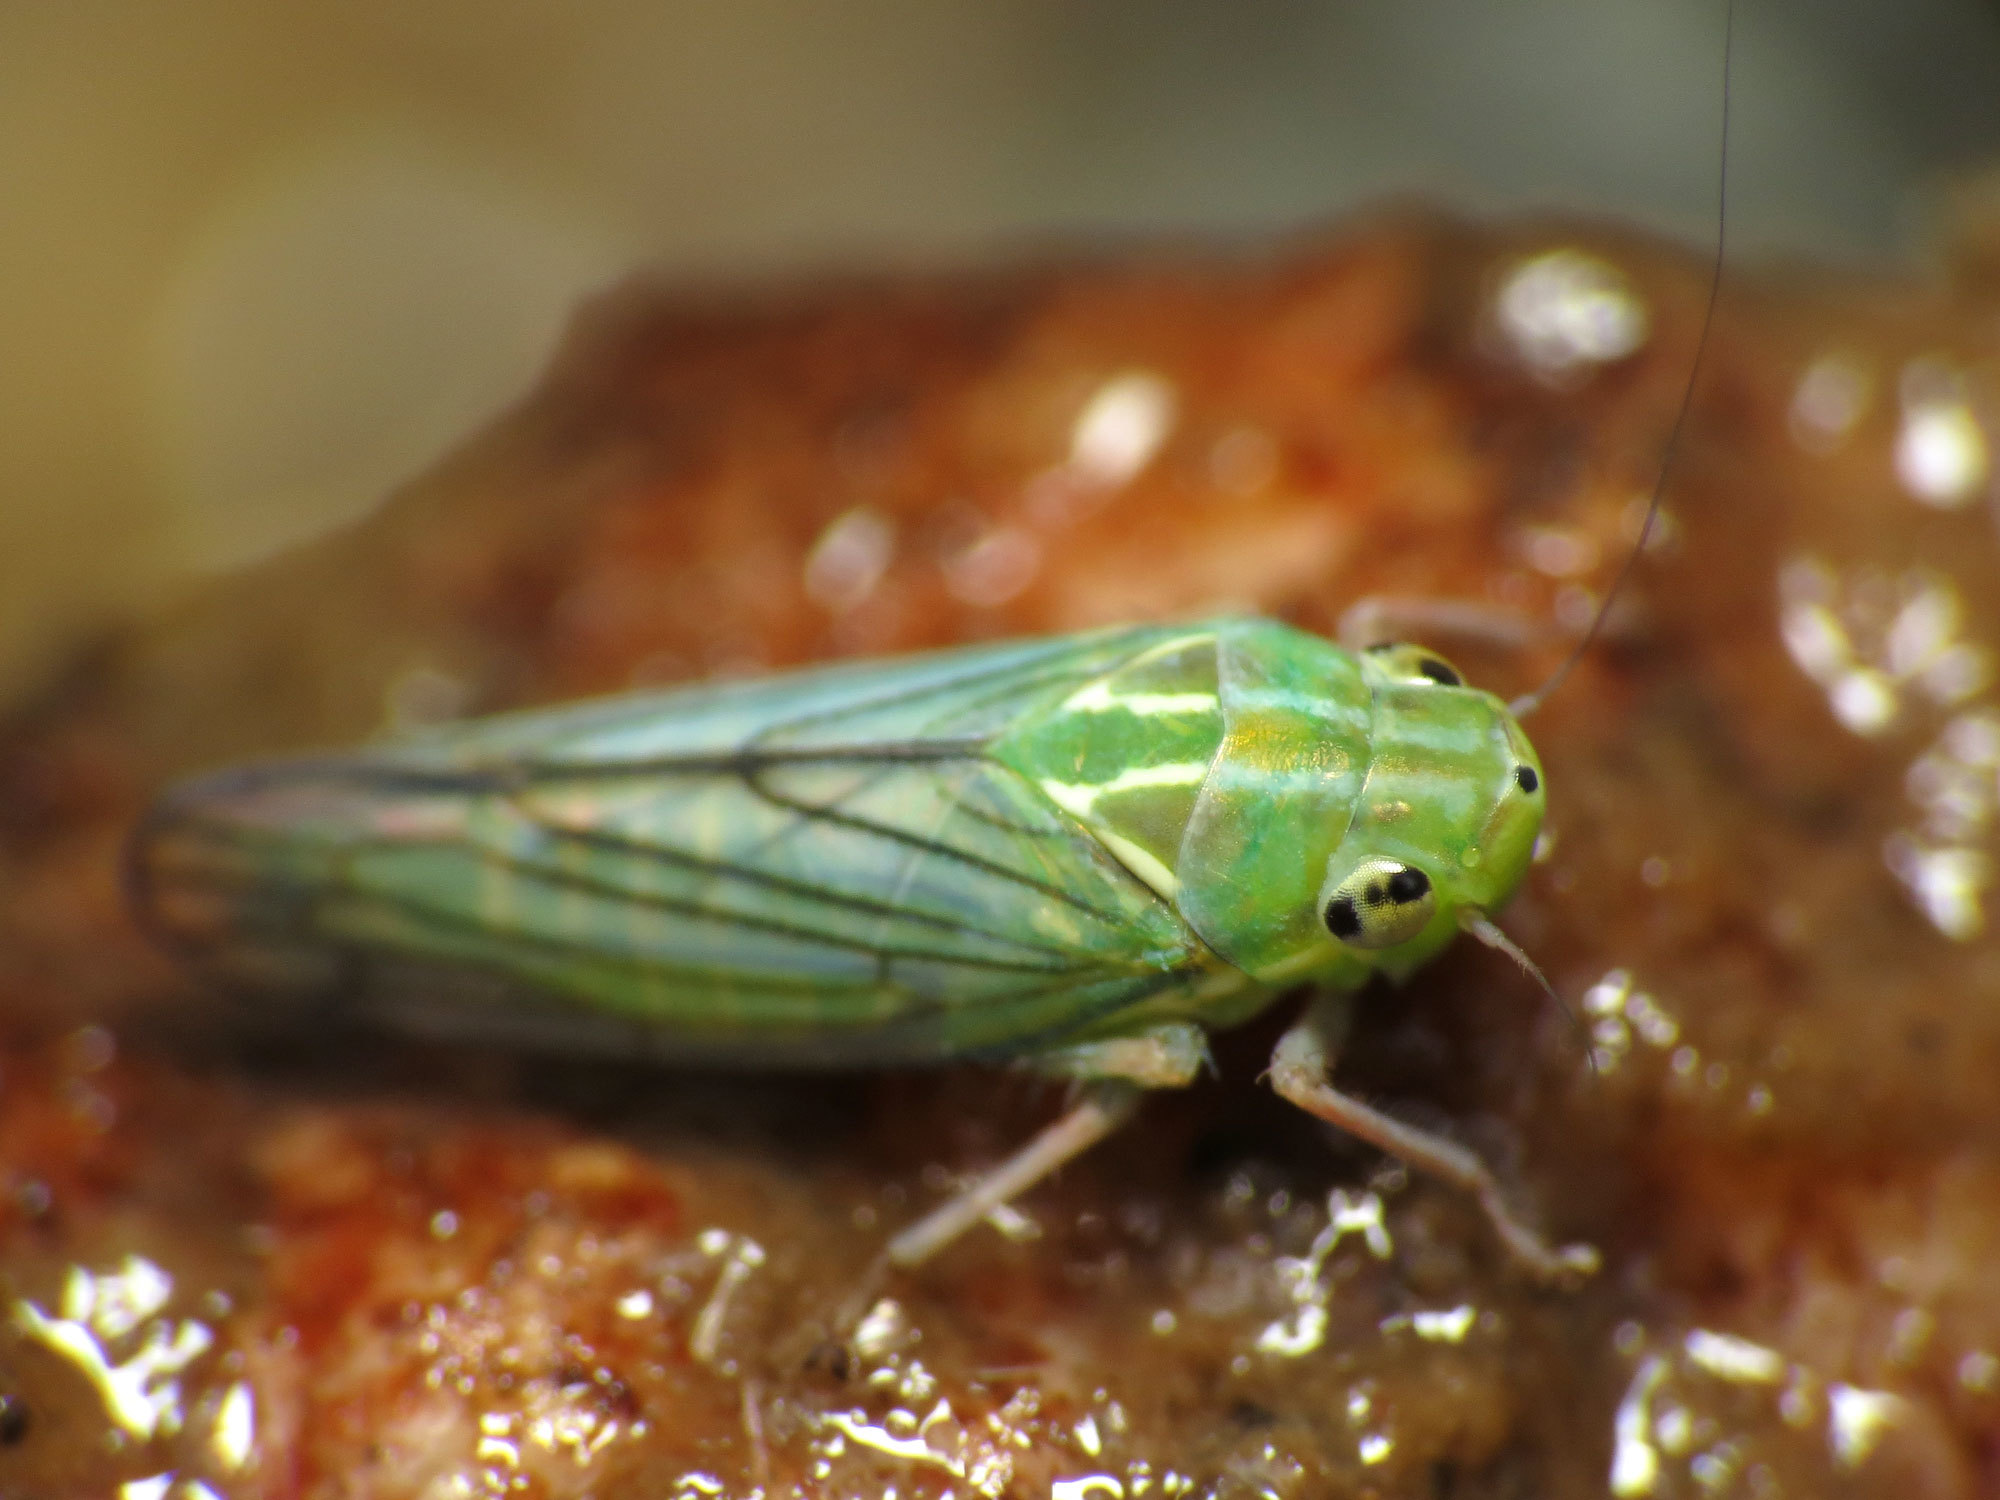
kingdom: Animalia
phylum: Arthropoda
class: Insecta
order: Hemiptera
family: Cicadellidae
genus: Coelella
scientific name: Coelella distincta
